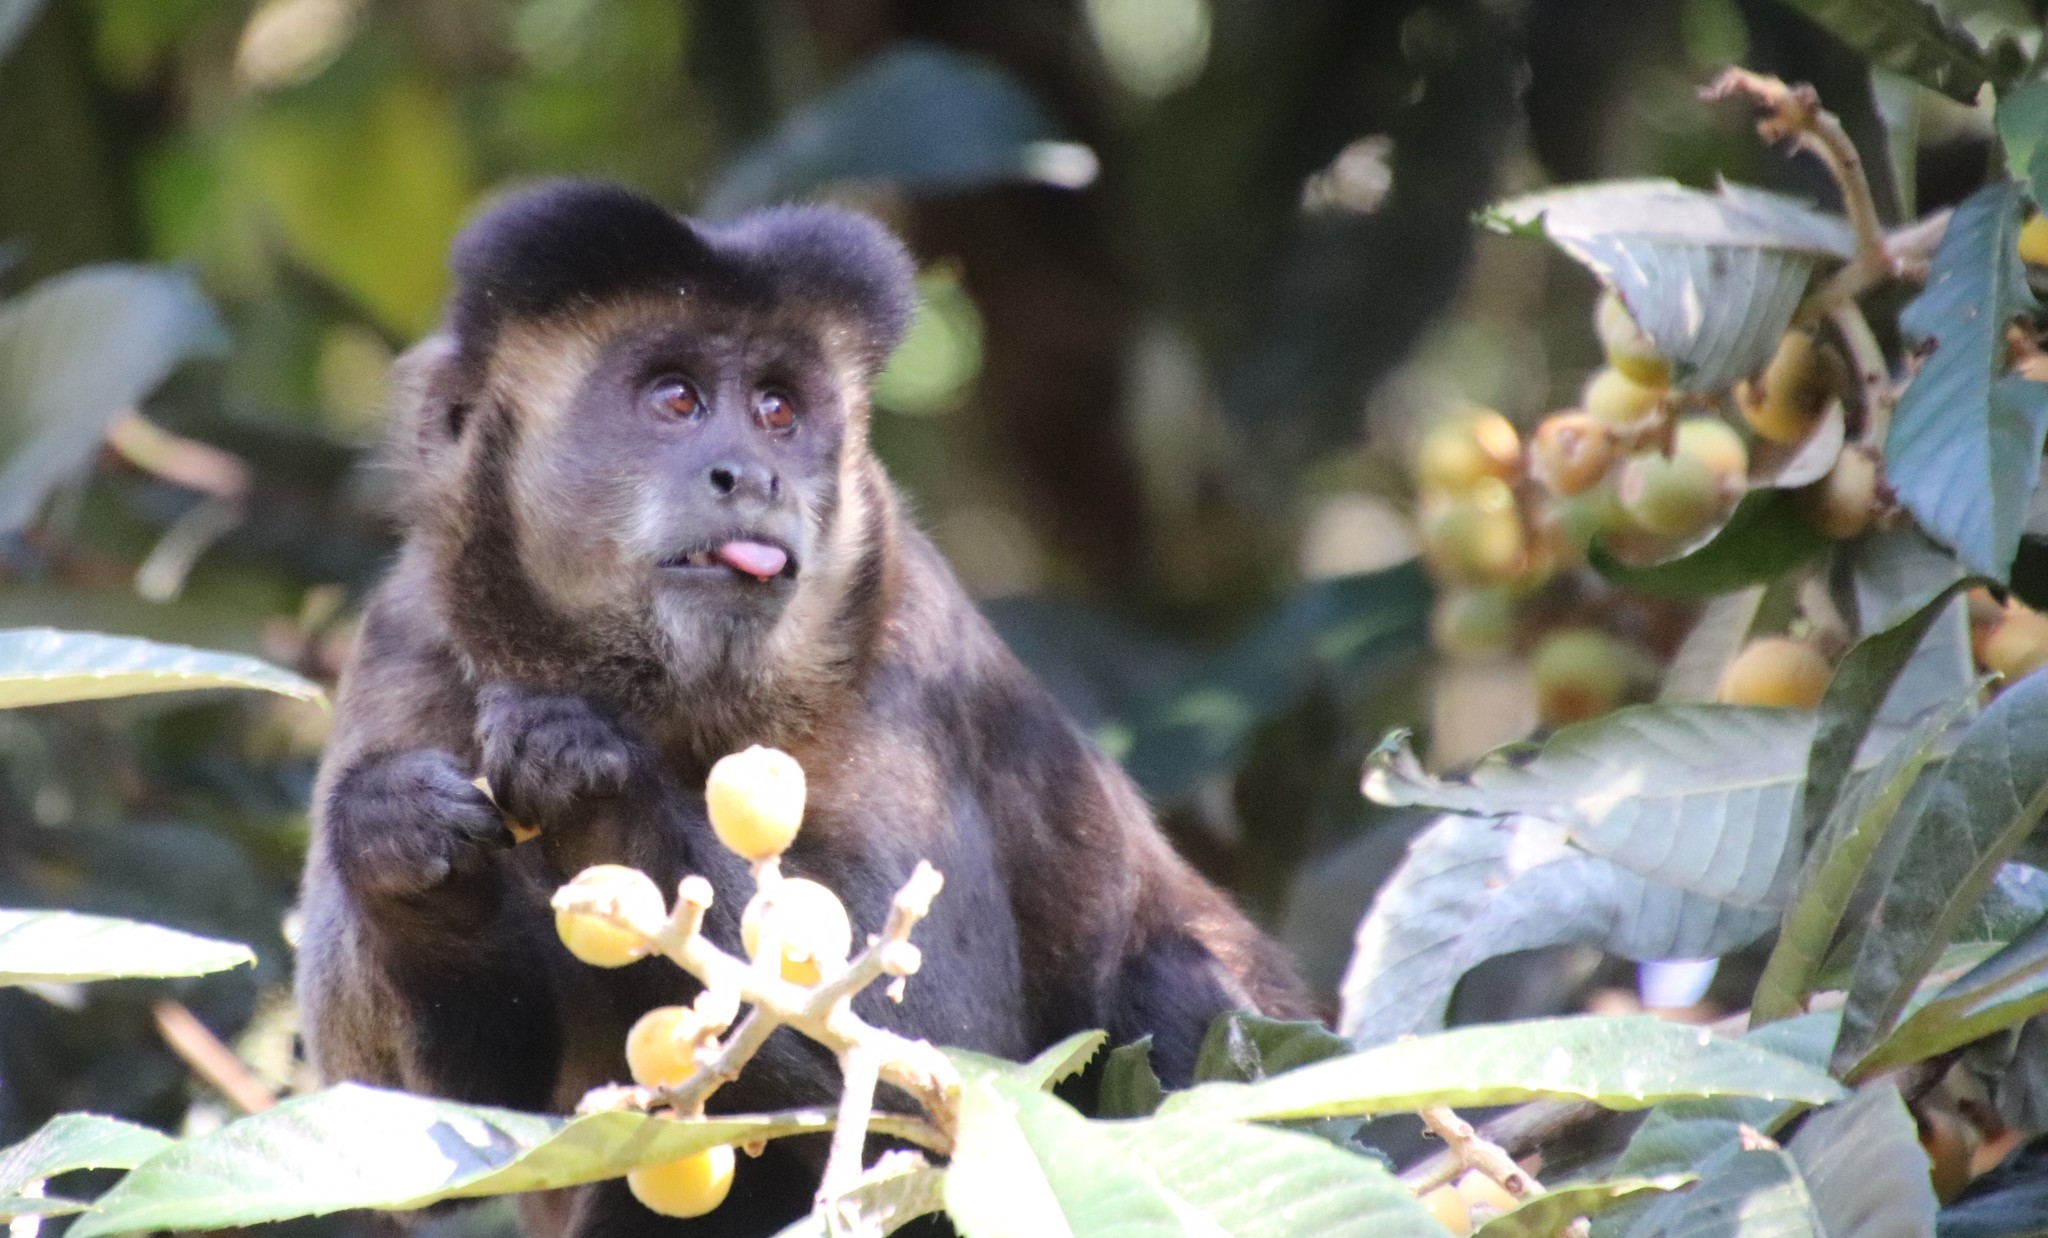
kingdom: Animalia
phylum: Chordata
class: Mammalia
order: Primates
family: Cebidae
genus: Sapajus
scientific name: Sapajus nigritus
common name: Black capuchin
